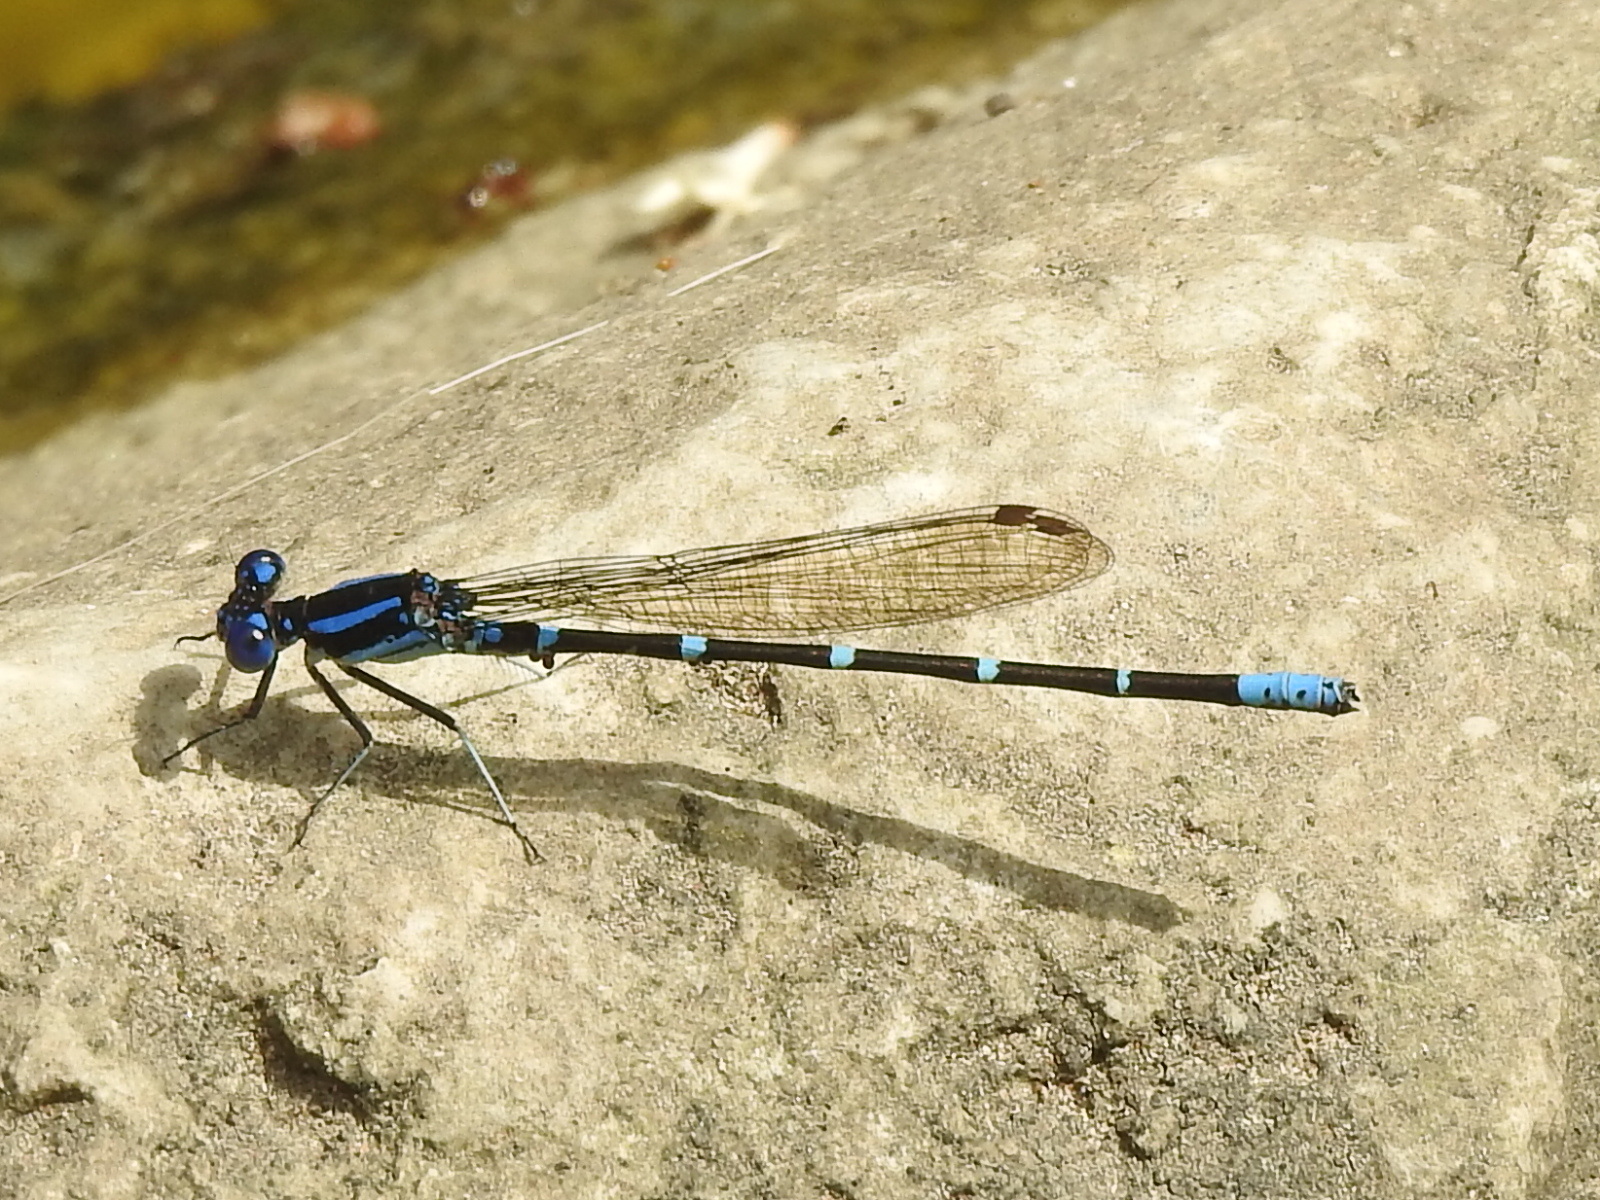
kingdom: Animalia
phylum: Arthropoda
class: Insecta
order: Odonata
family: Coenagrionidae
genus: Argia
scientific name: Argia sedula
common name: Blue-ringed dancer
